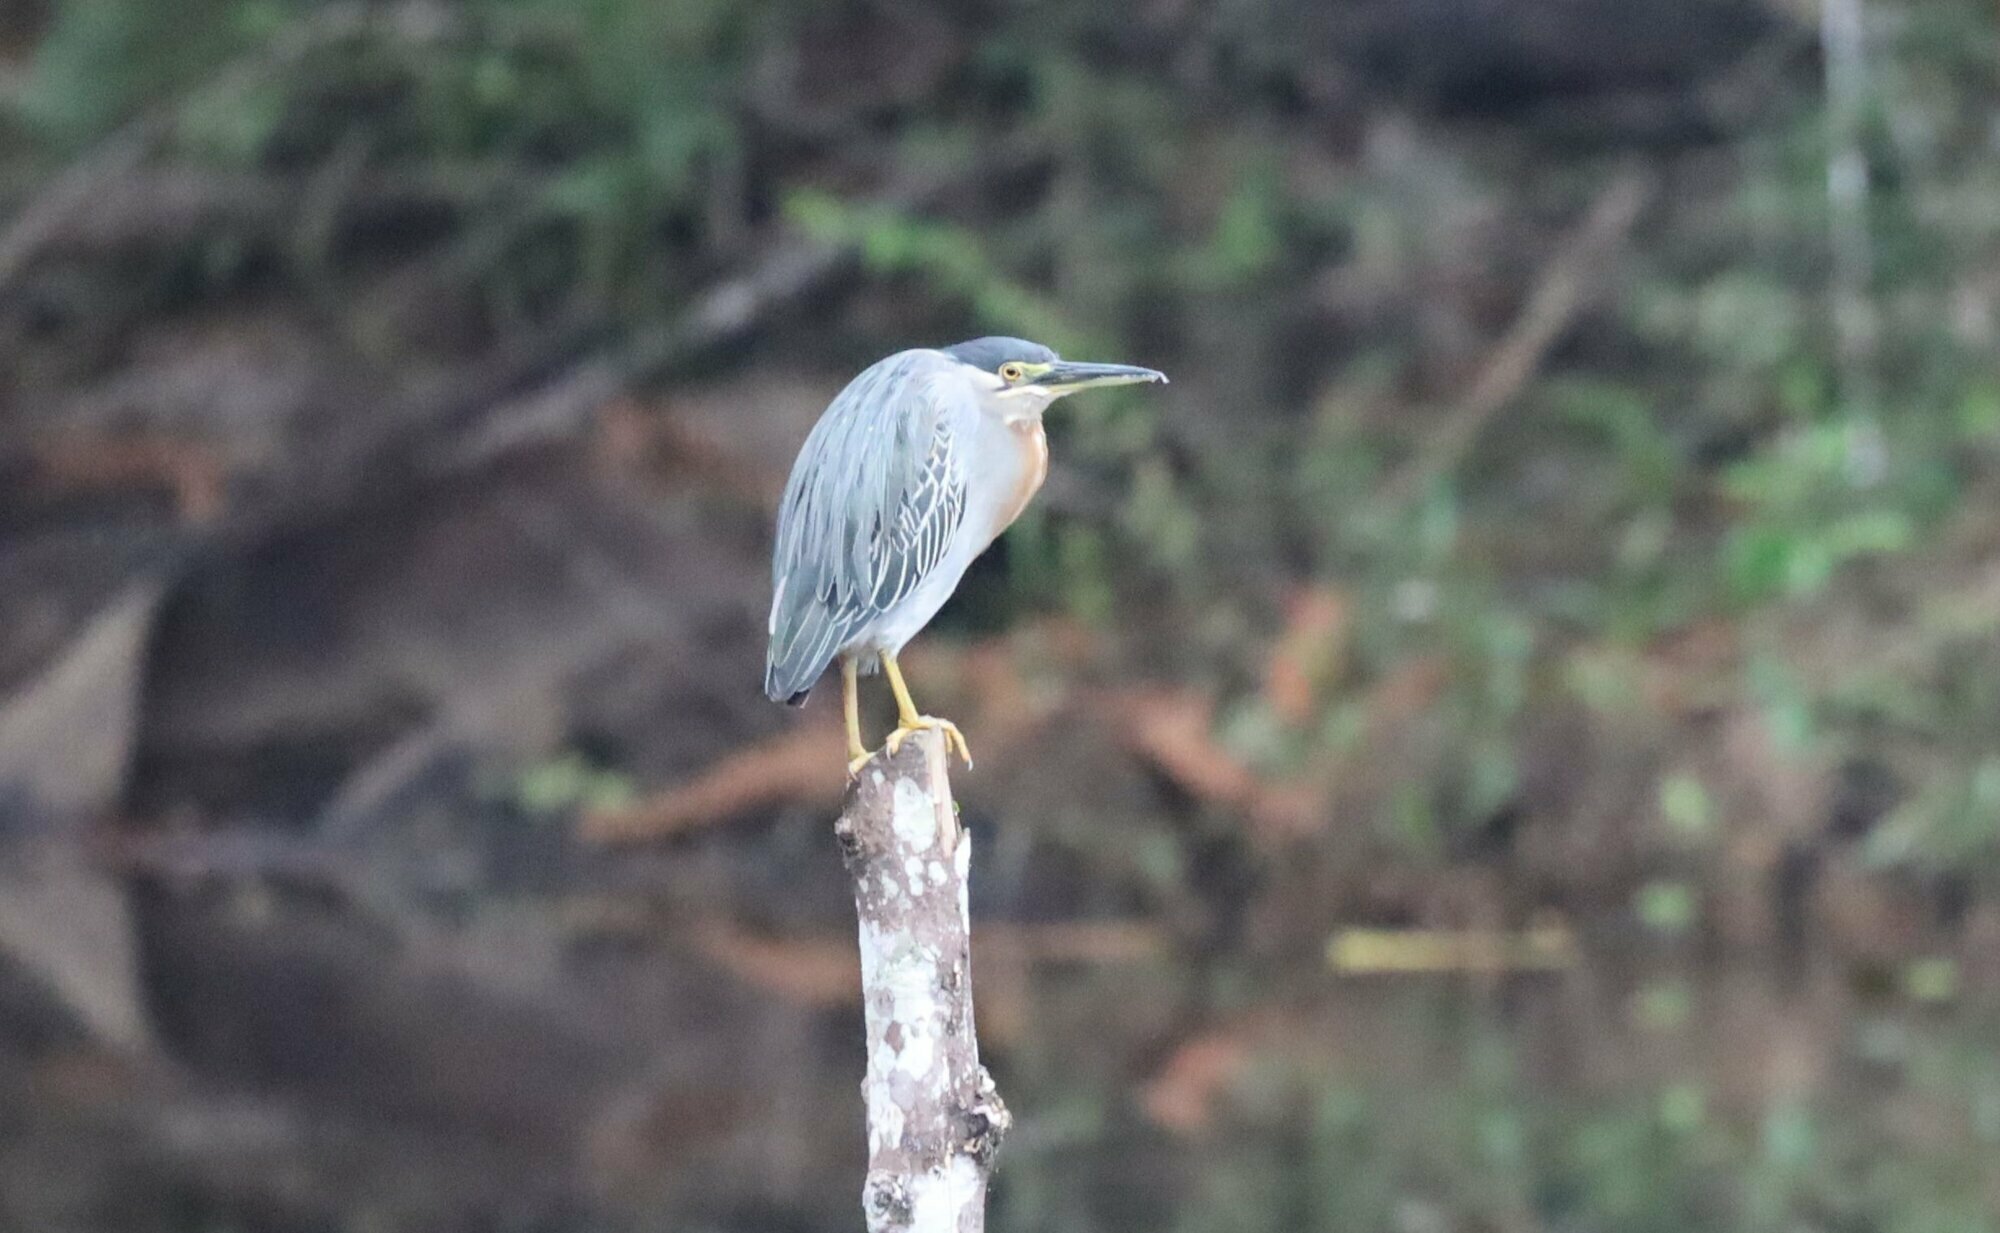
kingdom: Animalia
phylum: Chordata
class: Aves
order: Pelecaniformes
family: Ardeidae
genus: Butorides
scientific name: Butorides striata
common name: Striated heron
